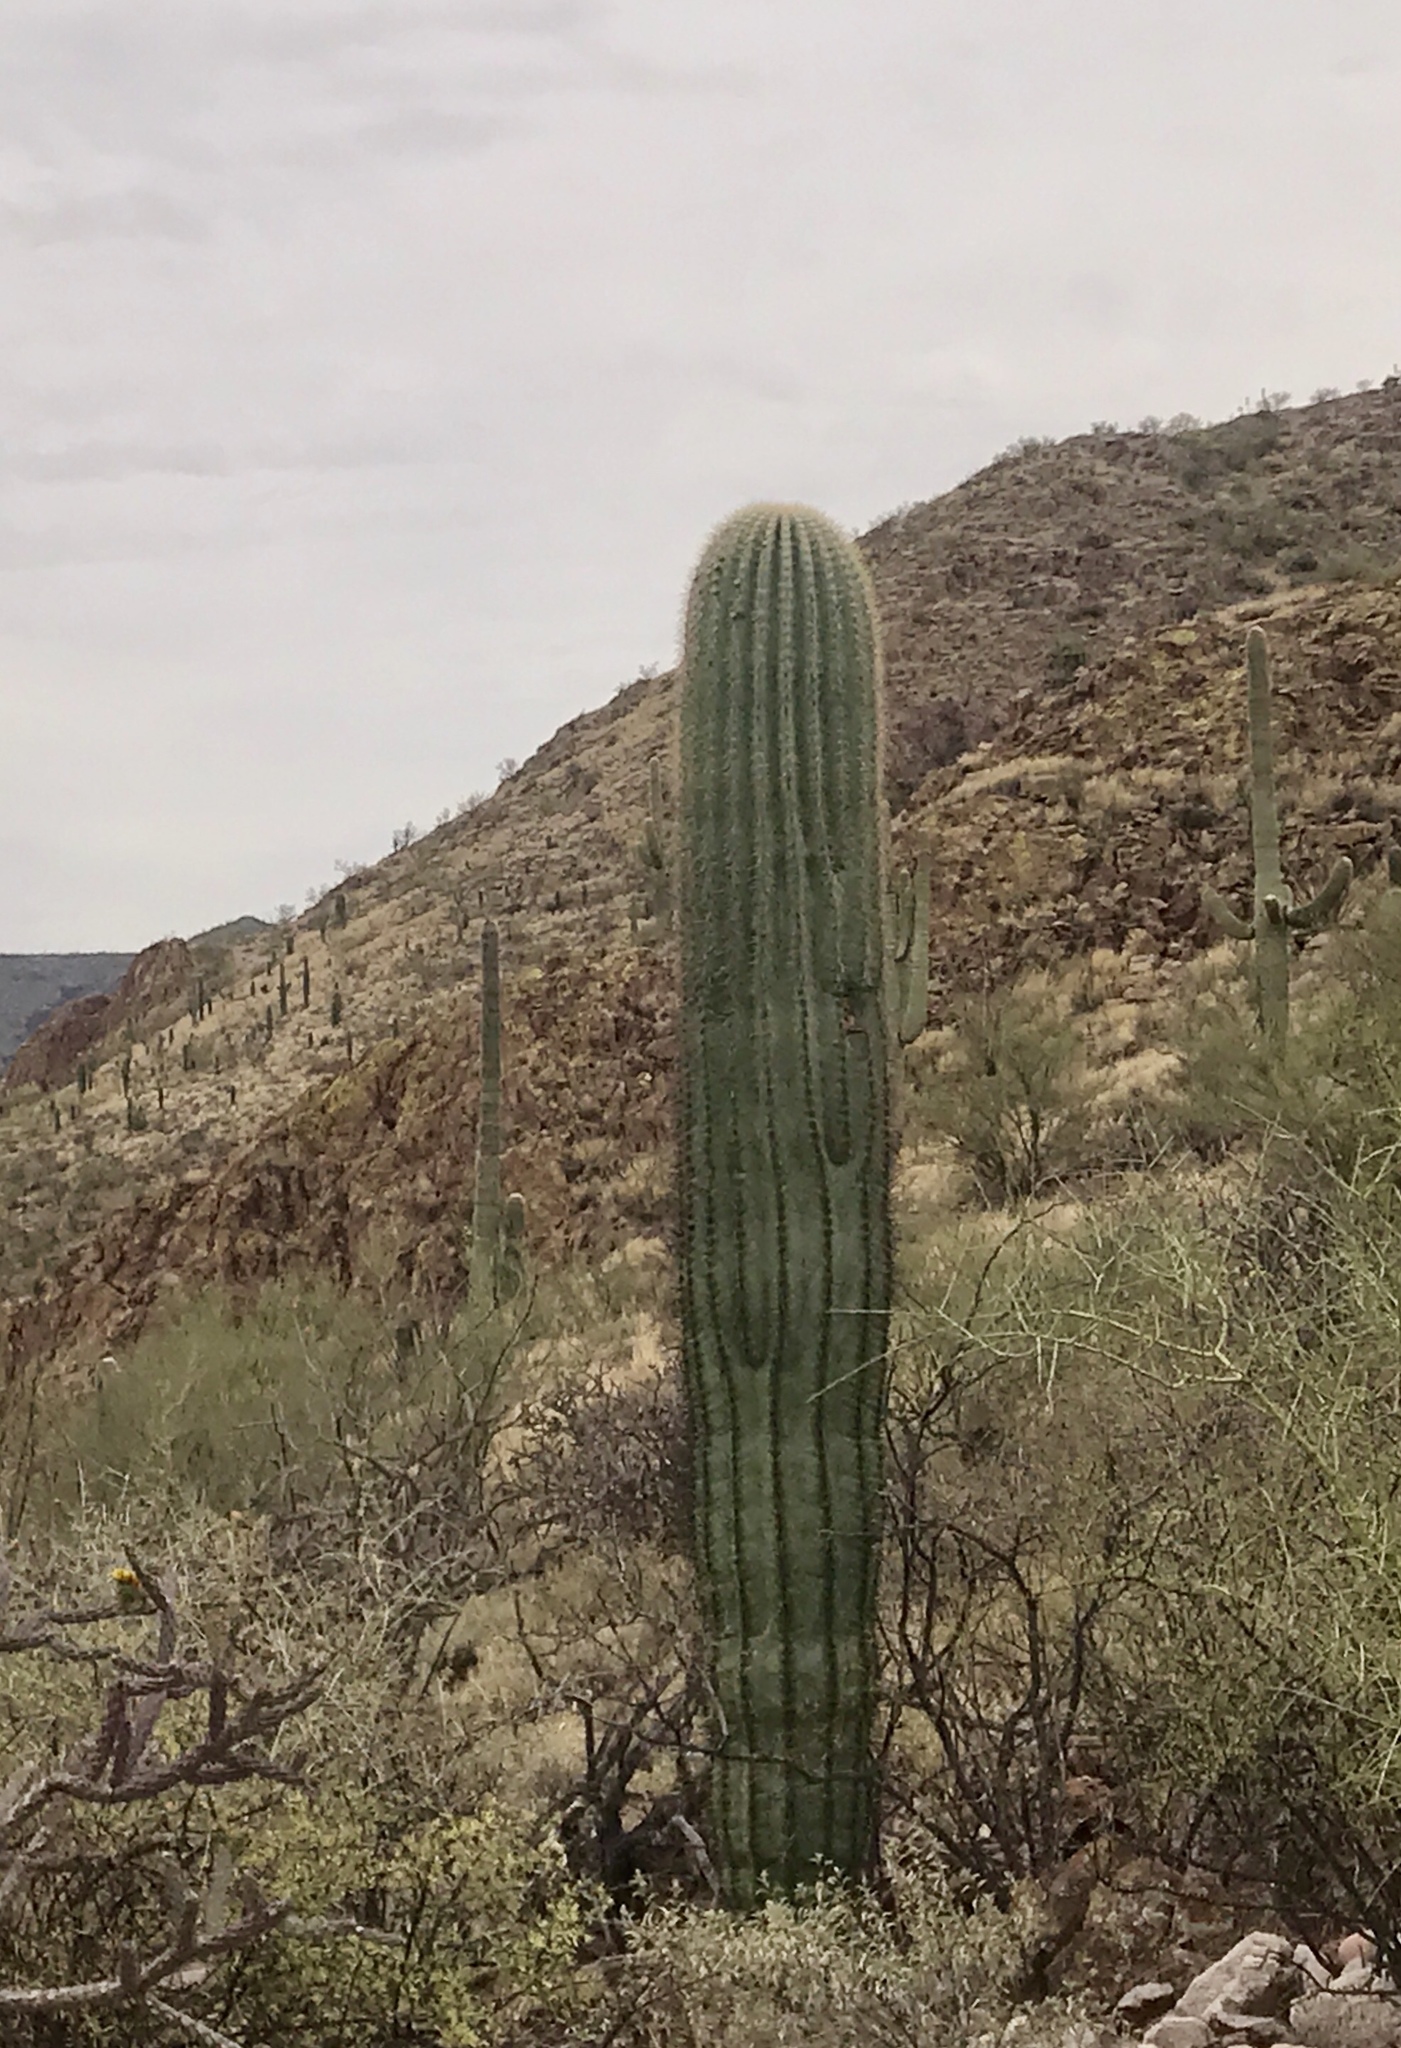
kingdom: Plantae
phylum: Tracheophyta
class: Magnoliopsida
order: Caryophyllales
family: Cactaceae
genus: Carnegiea
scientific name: Carnegiea gigantea
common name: Saguaro
